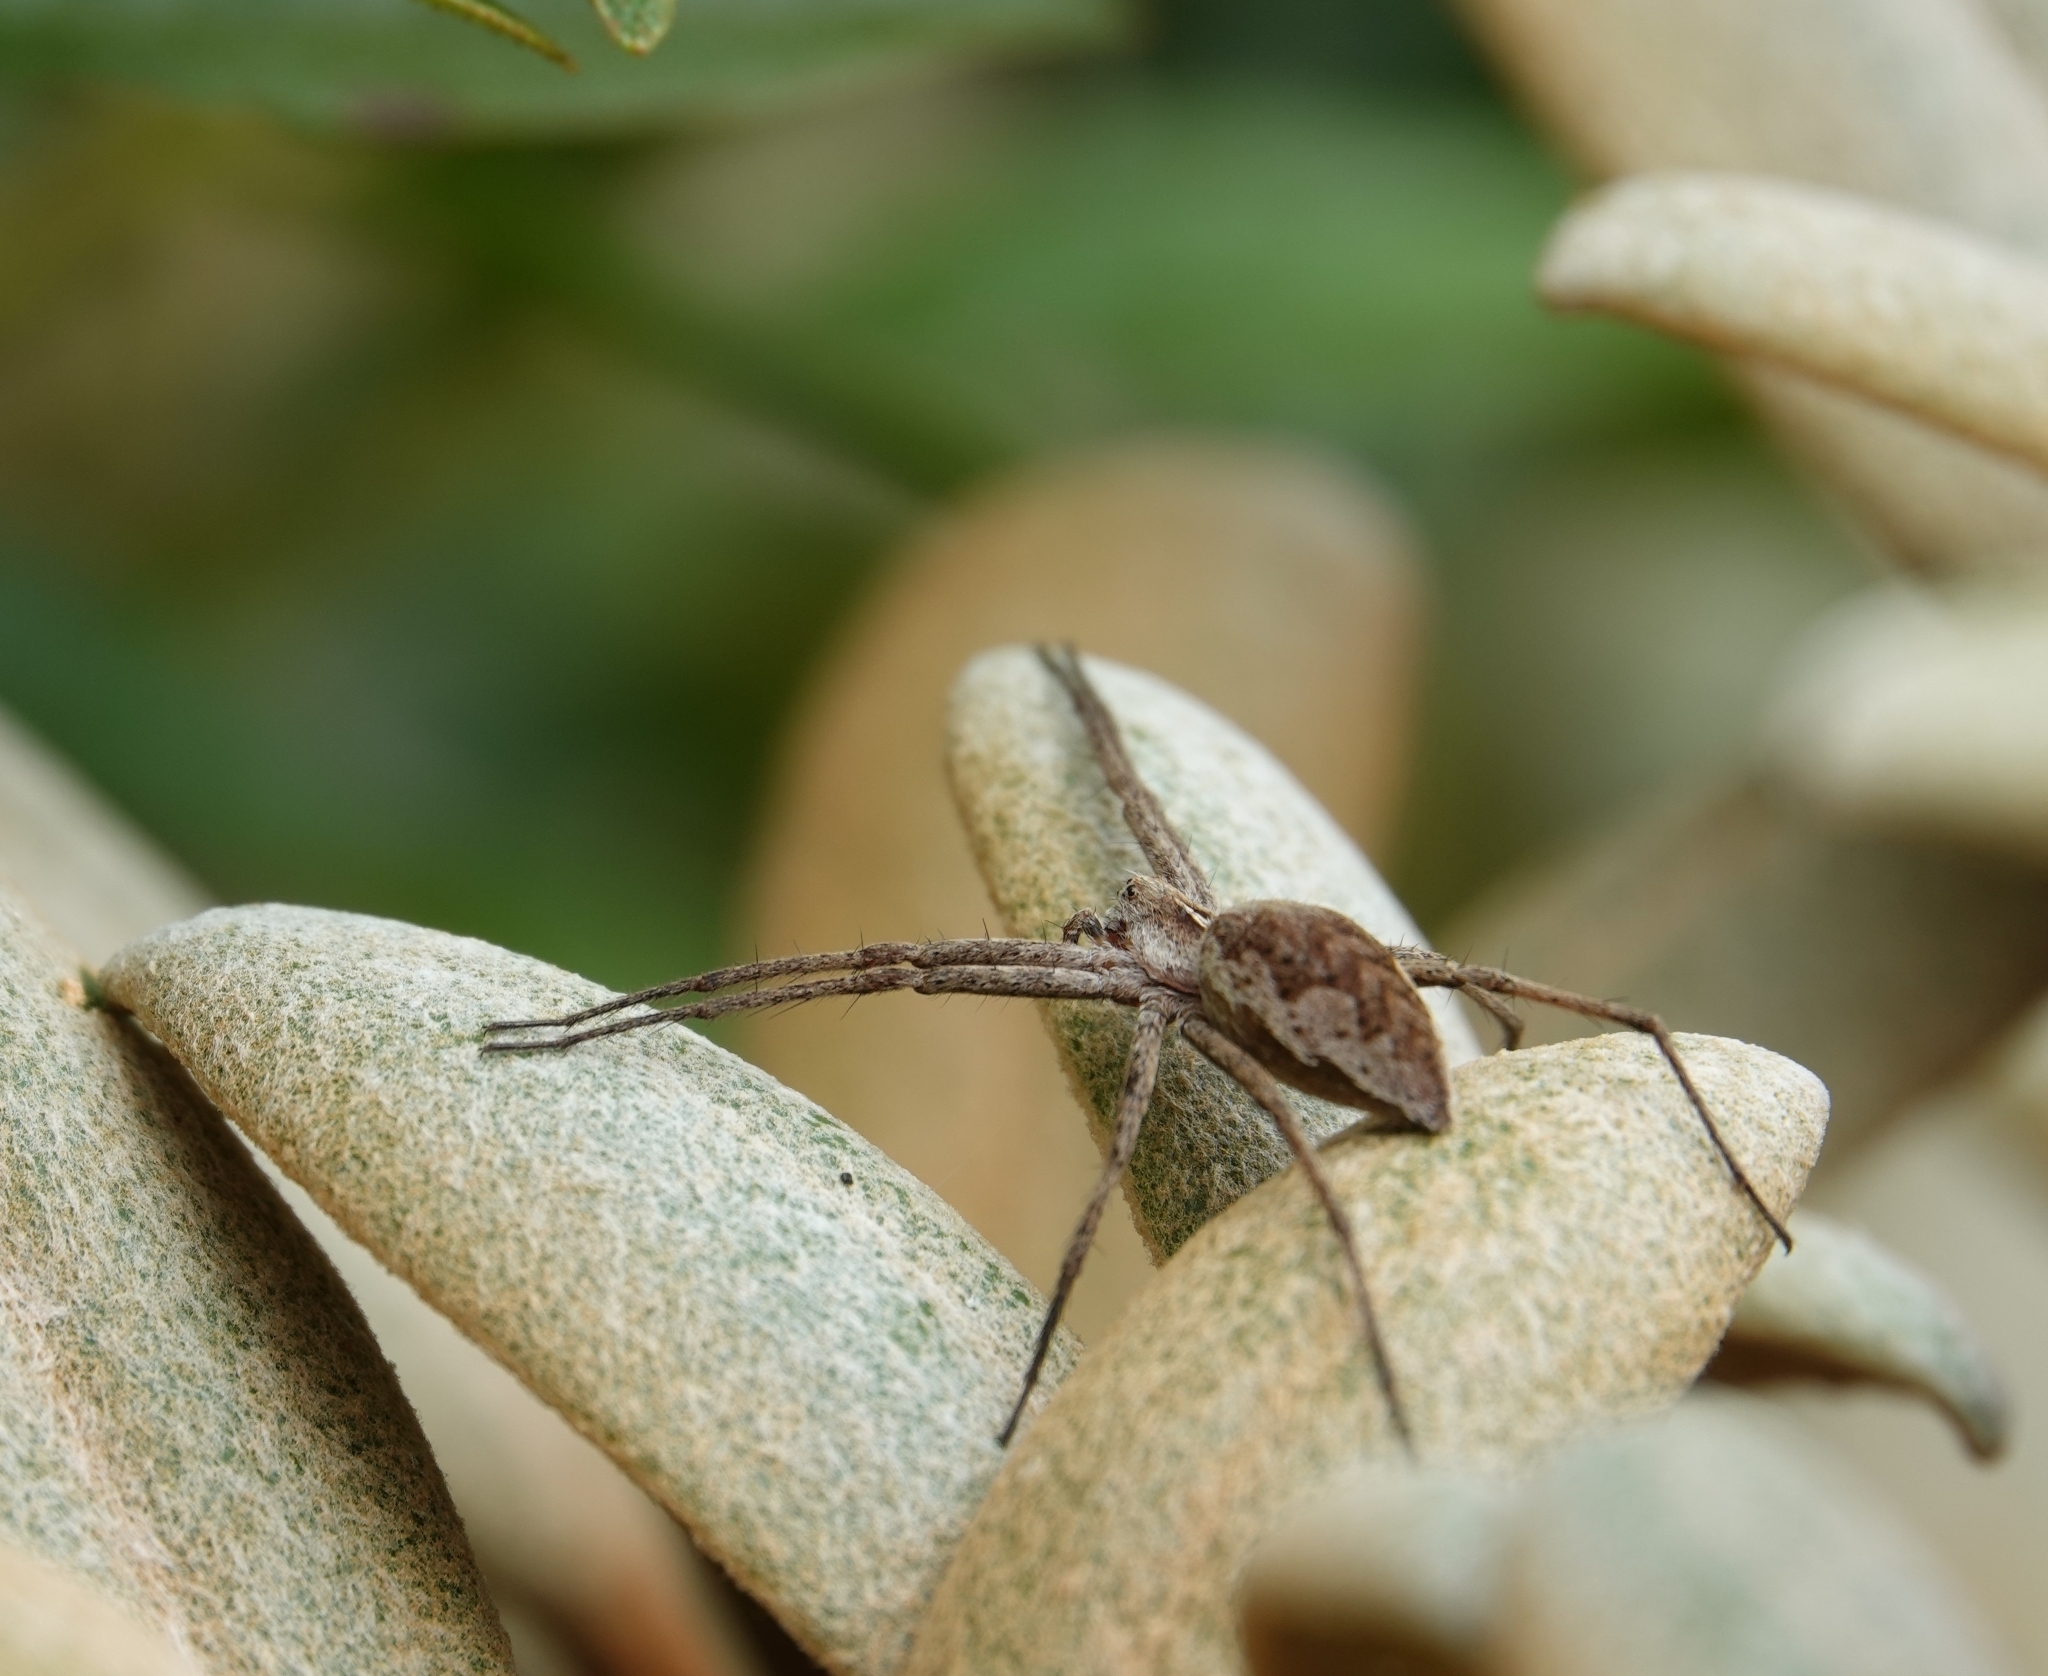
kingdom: Animalia
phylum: Arthropoda
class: Arachnida
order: Araneae
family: Pisauridae
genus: Pisaura
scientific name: Pisaura mirabilis
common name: Tent spider
